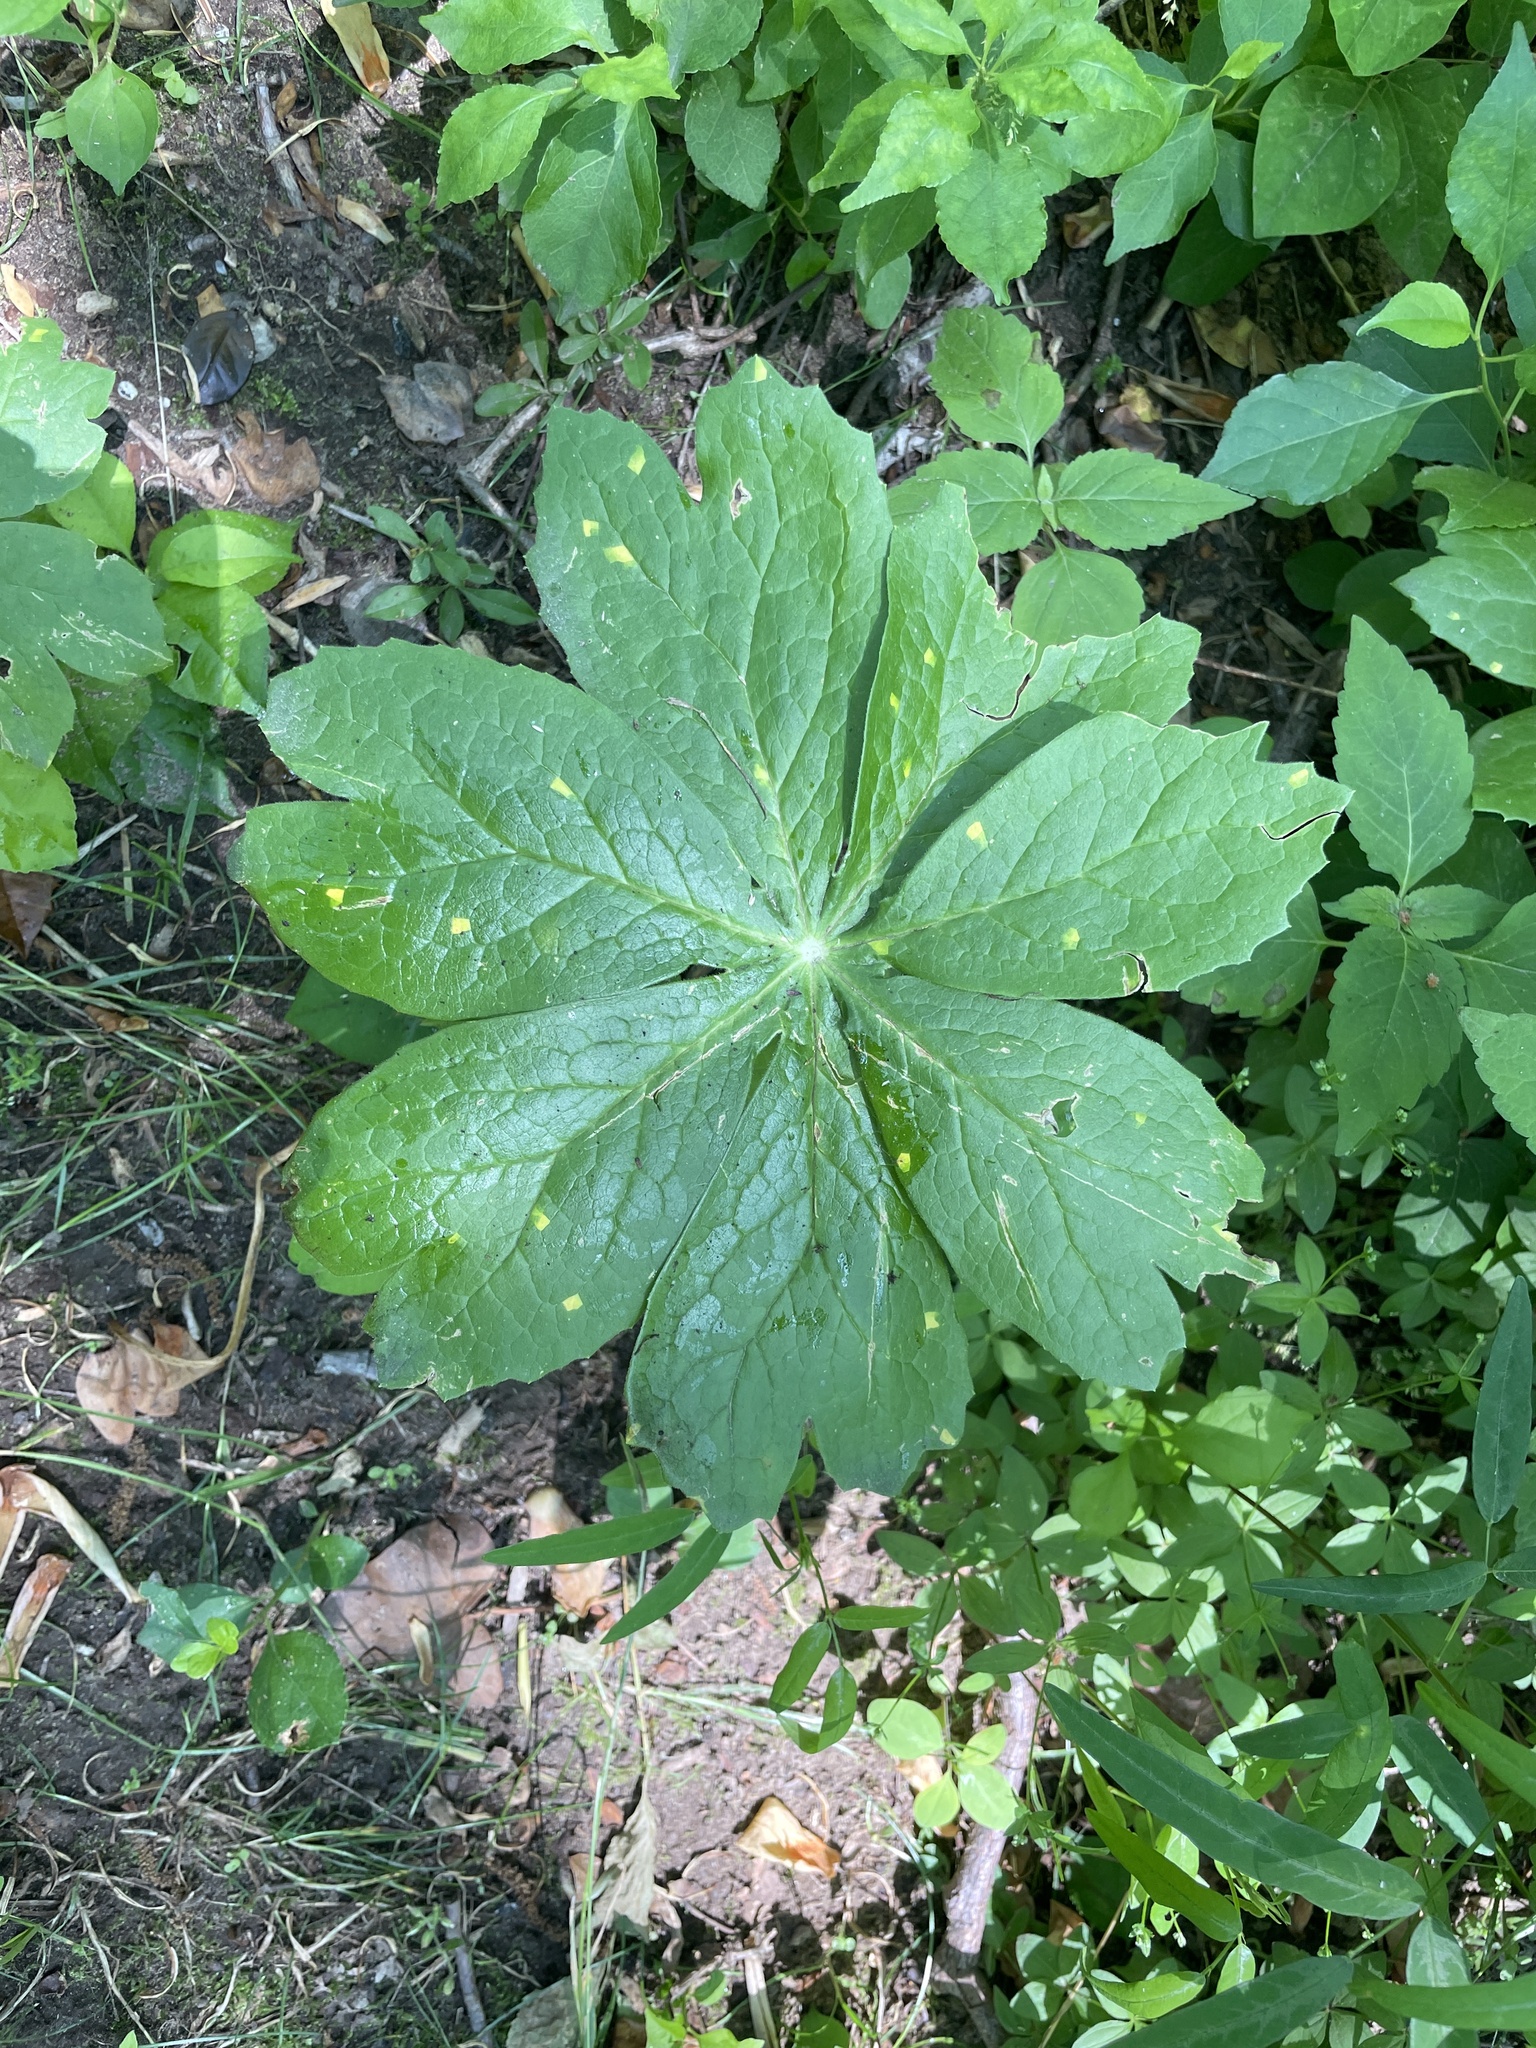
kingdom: Fungi
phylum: Basidiomycota
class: Pucciniomycetes
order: Pucciniales
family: Pucciniaceae
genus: Puccinia
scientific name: Puccinia podophylli
